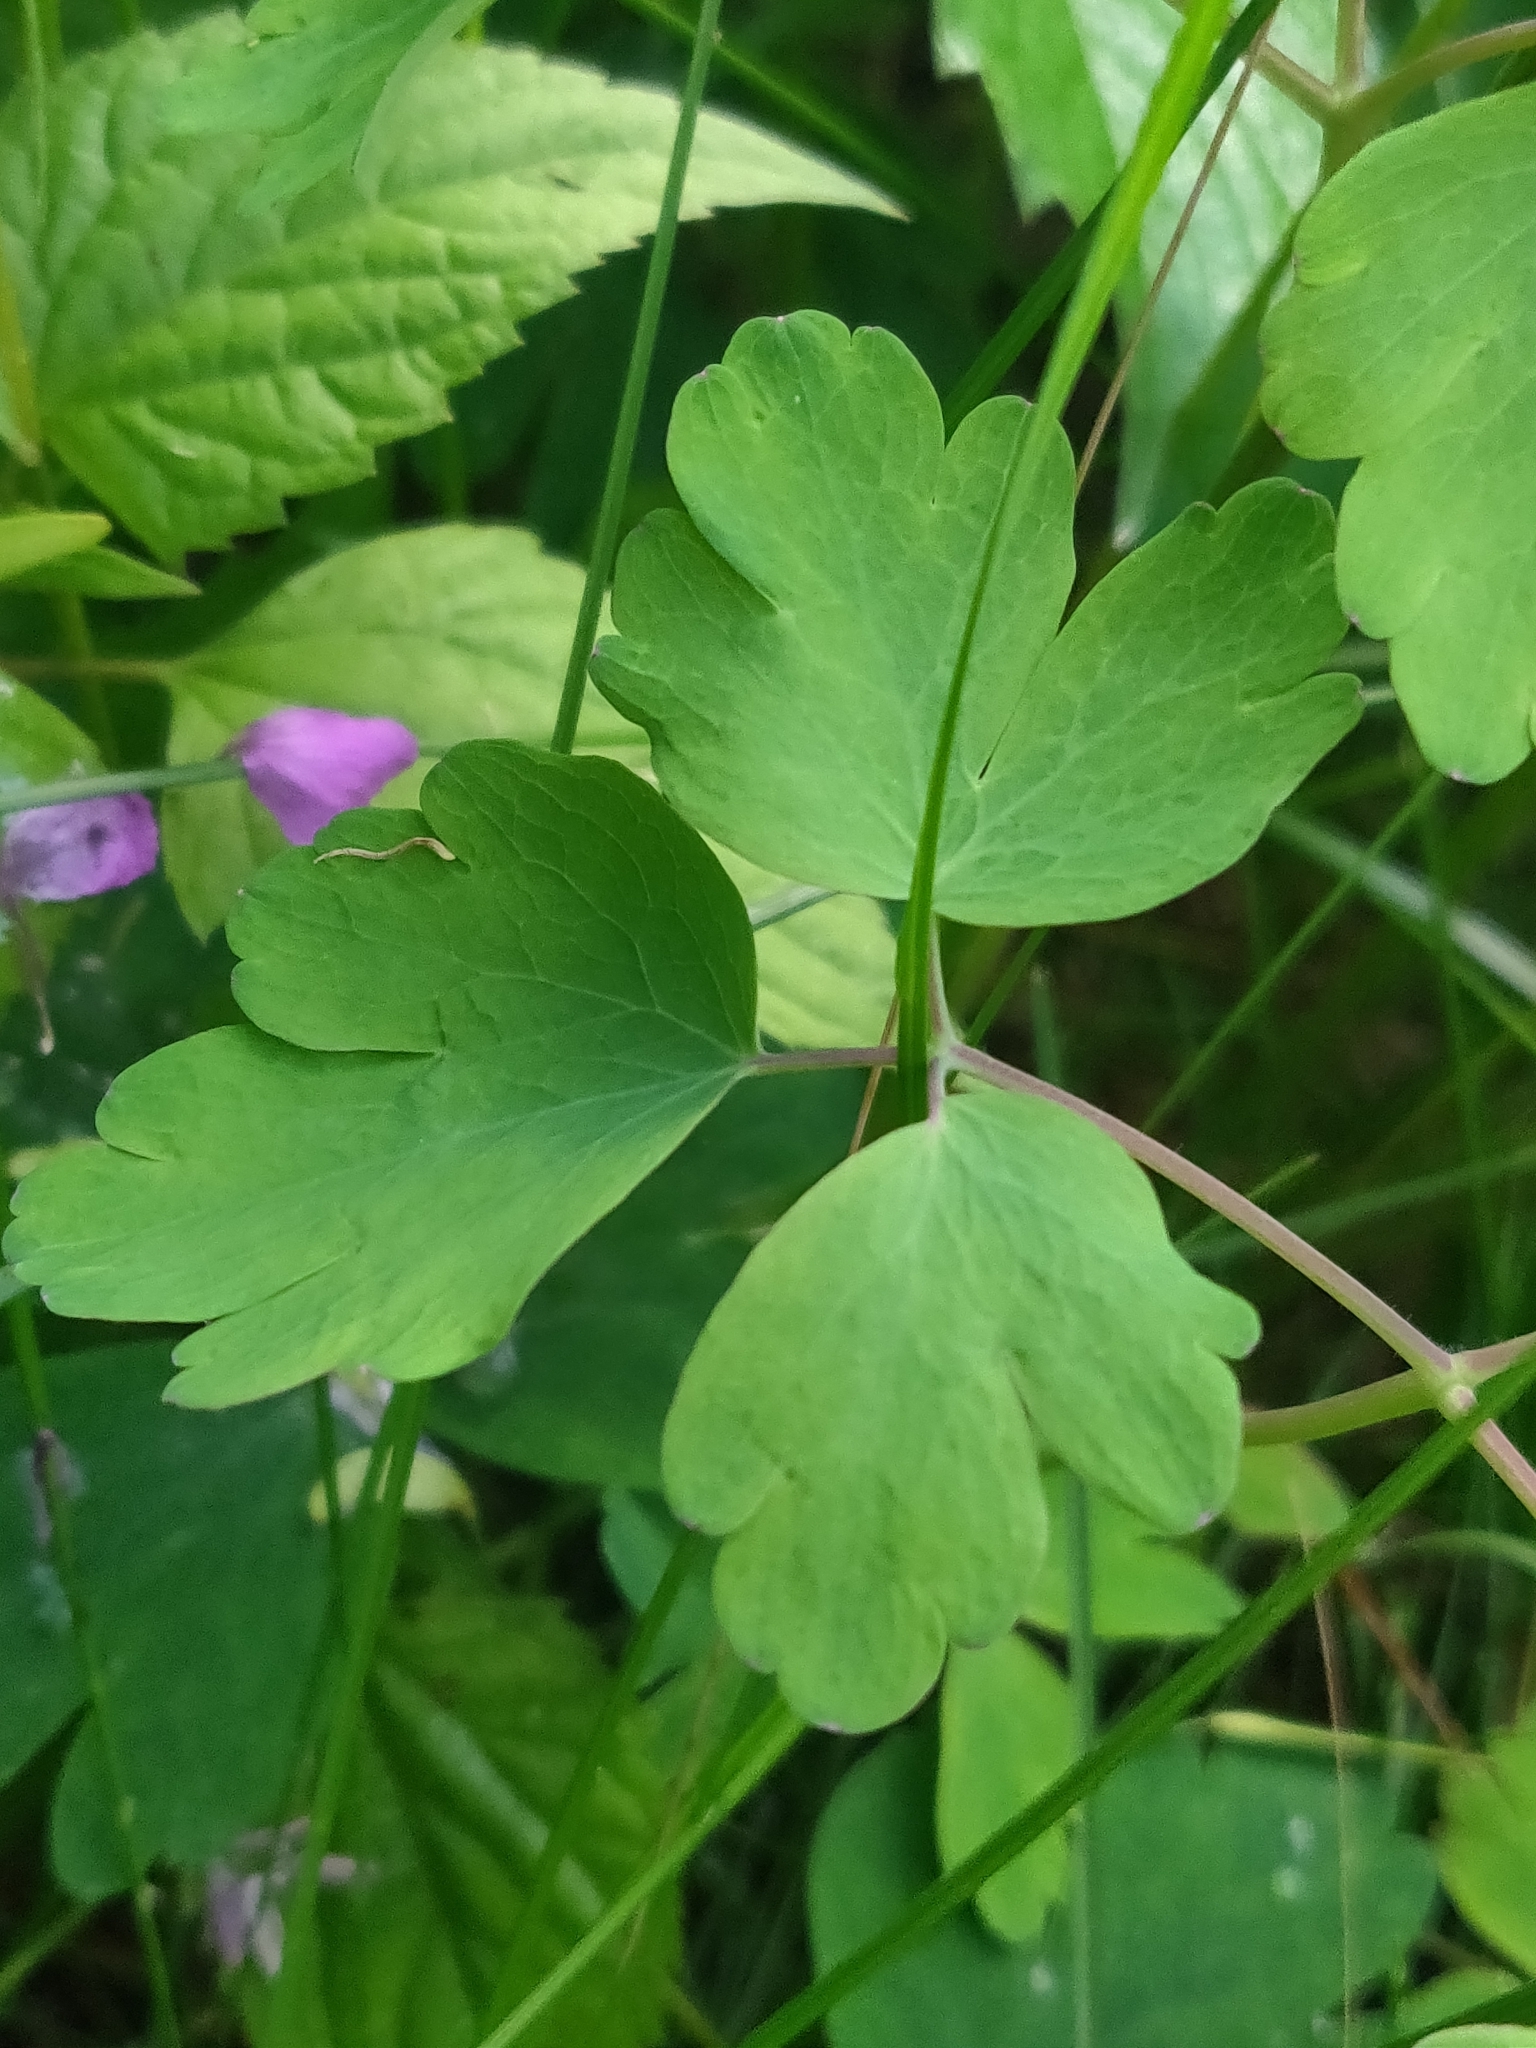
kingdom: Plantae
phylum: Tracheophyta
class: Magnoliopsida
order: Ranunculales
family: Ranunculaceae
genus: Aquilegia
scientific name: Aquilegia canadensis
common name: American columbine
